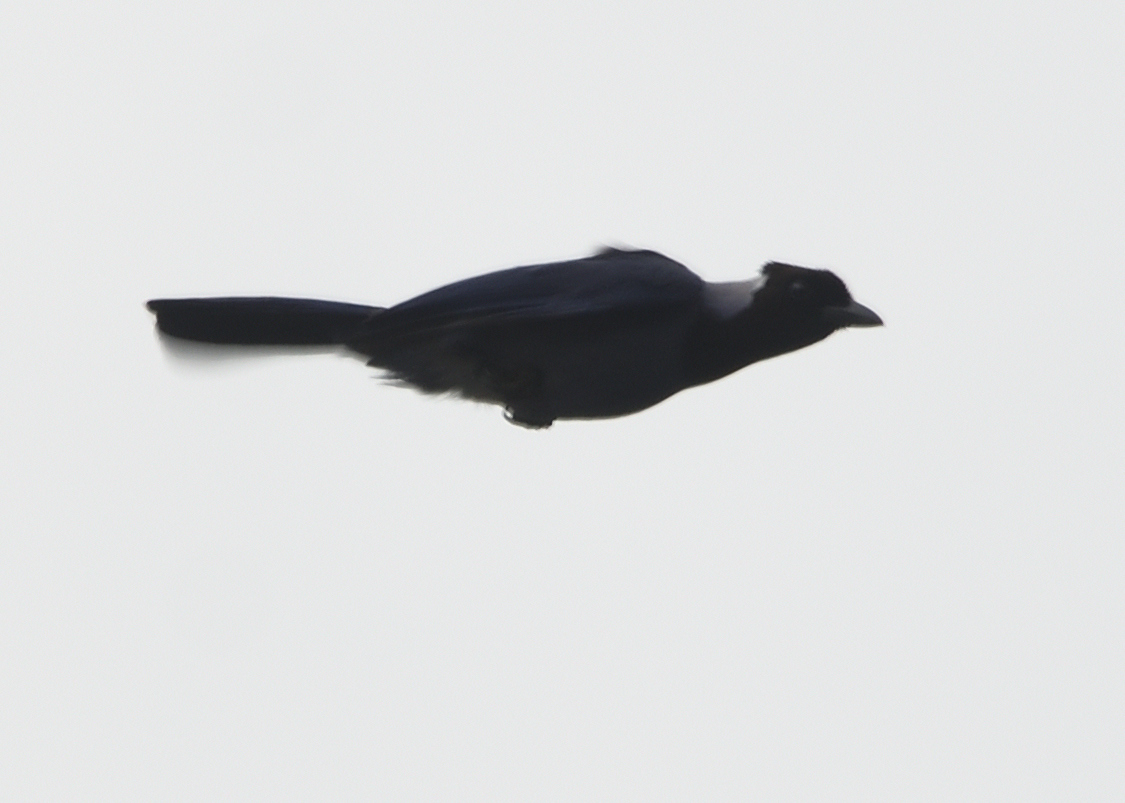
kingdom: Animalia
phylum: Chordata
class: Aves
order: Passeriformes
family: Corvidae
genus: Cyanocorax
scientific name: Cyanocorax violaceus
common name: Violaceous jay
